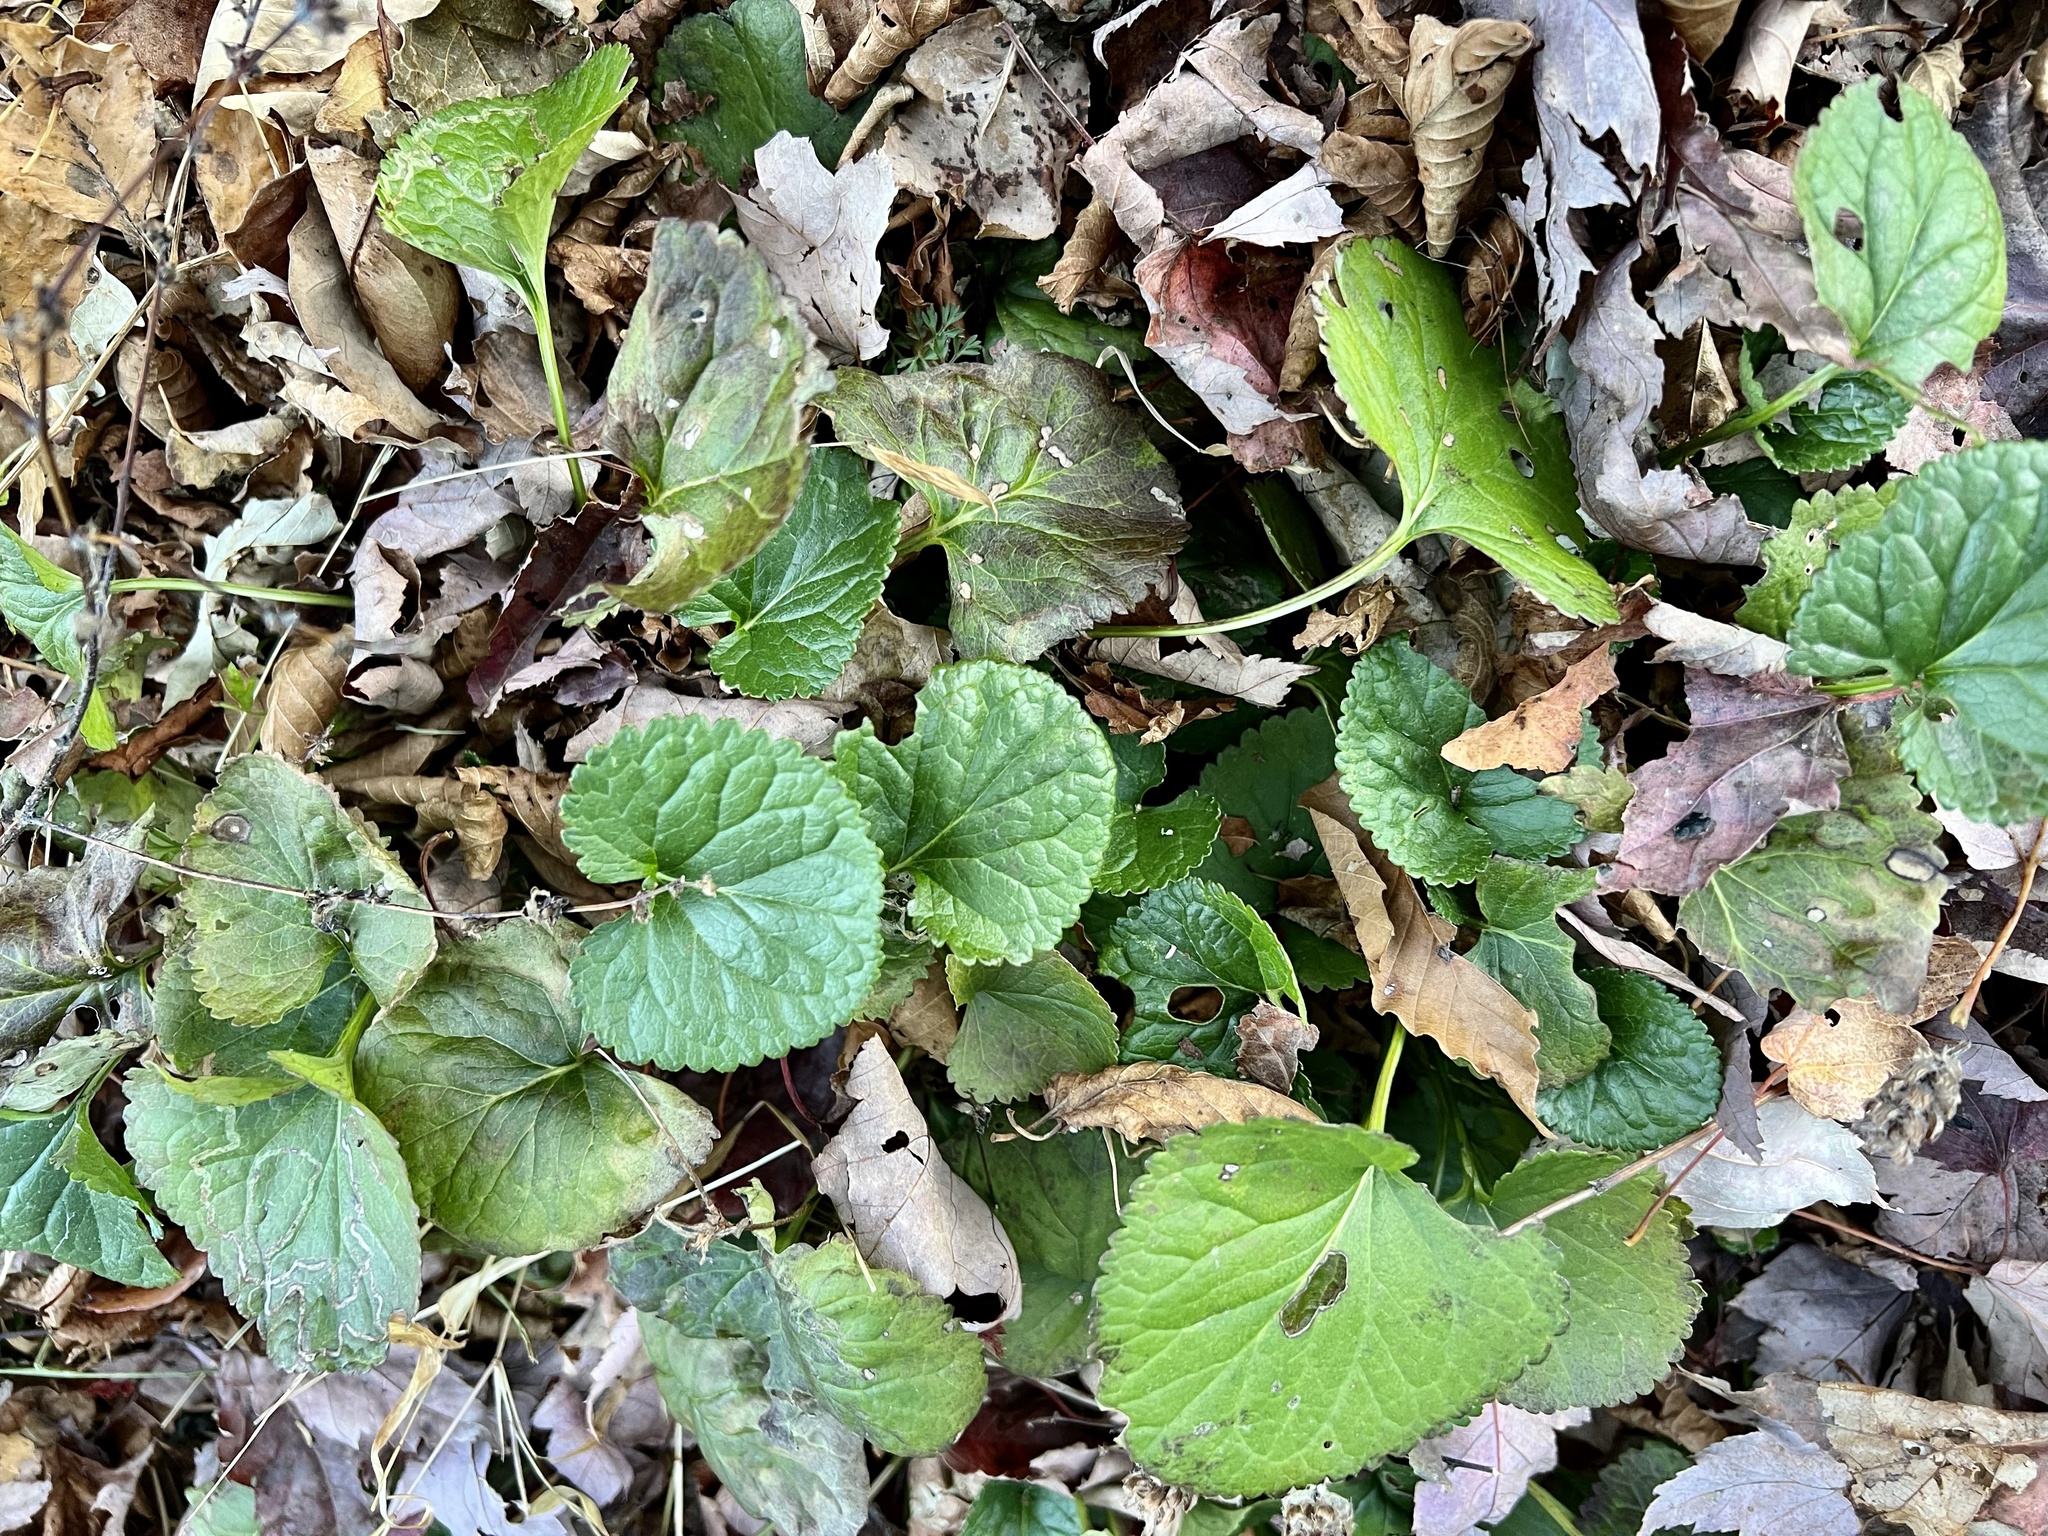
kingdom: Plantae
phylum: Tracheophyta
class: Magnoliopsida
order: Asterales
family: Asteraceae
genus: Packera
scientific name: Packera aurea
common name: Golden groundsel
